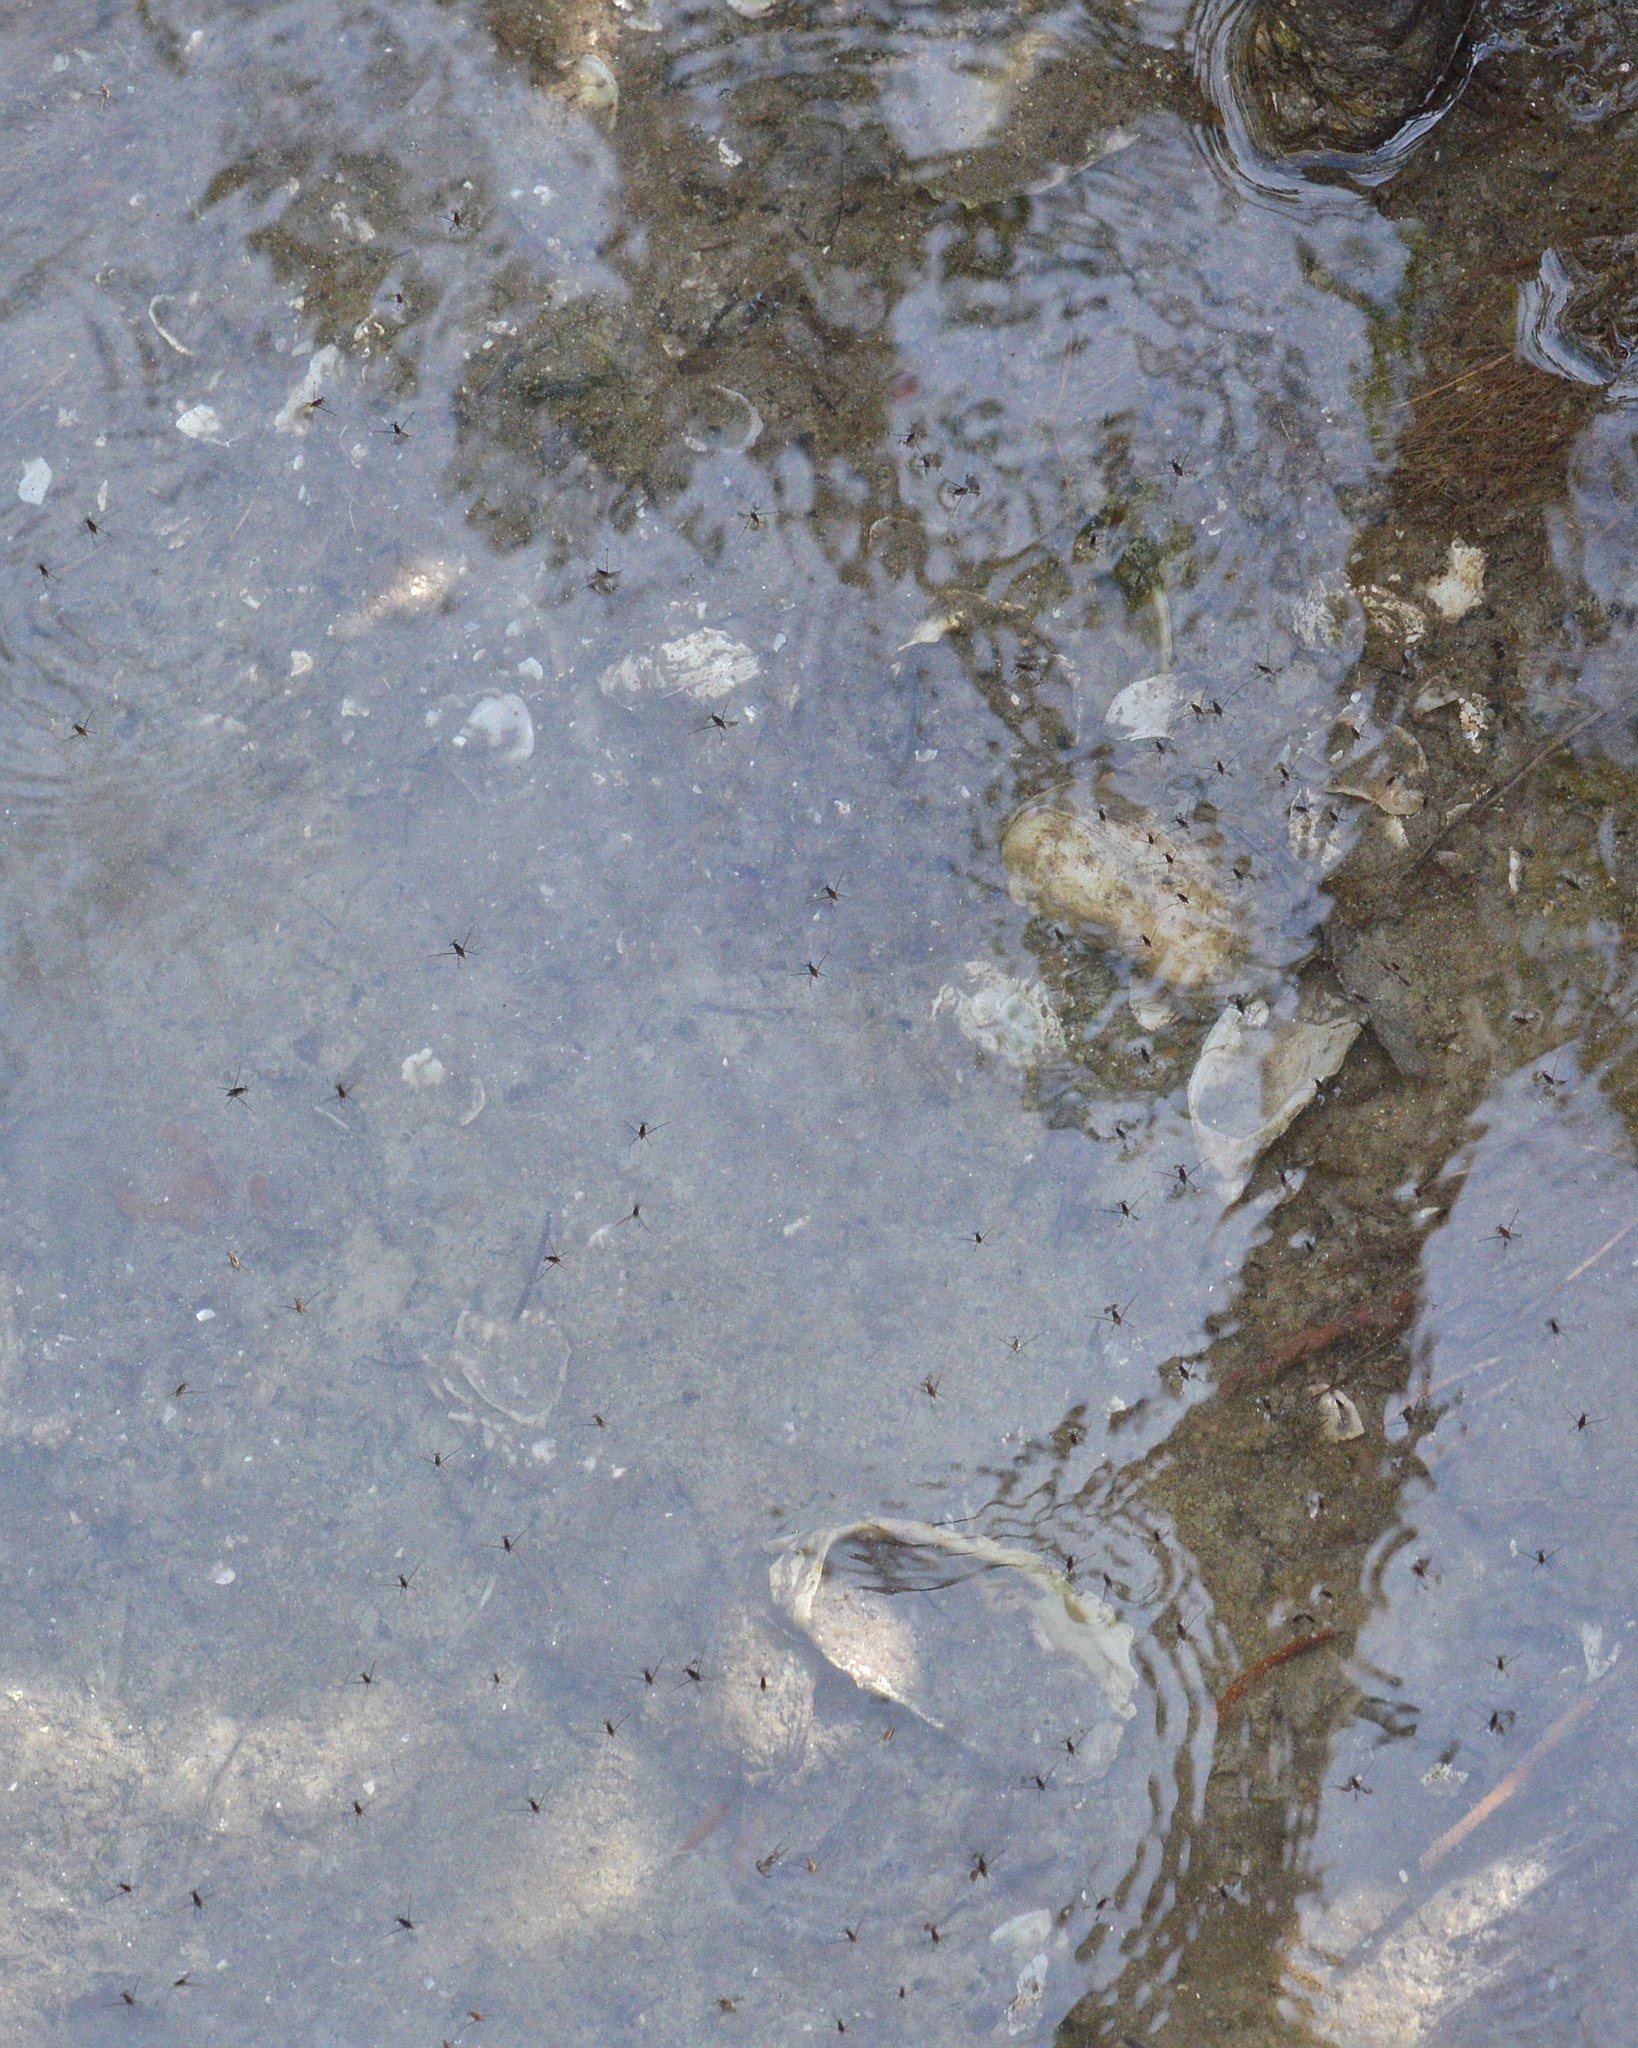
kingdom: Animalia
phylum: Arthropoda
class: Insecta
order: Hemiptera
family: Gerridae
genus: Rheumatobates
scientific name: Rheumatobates
